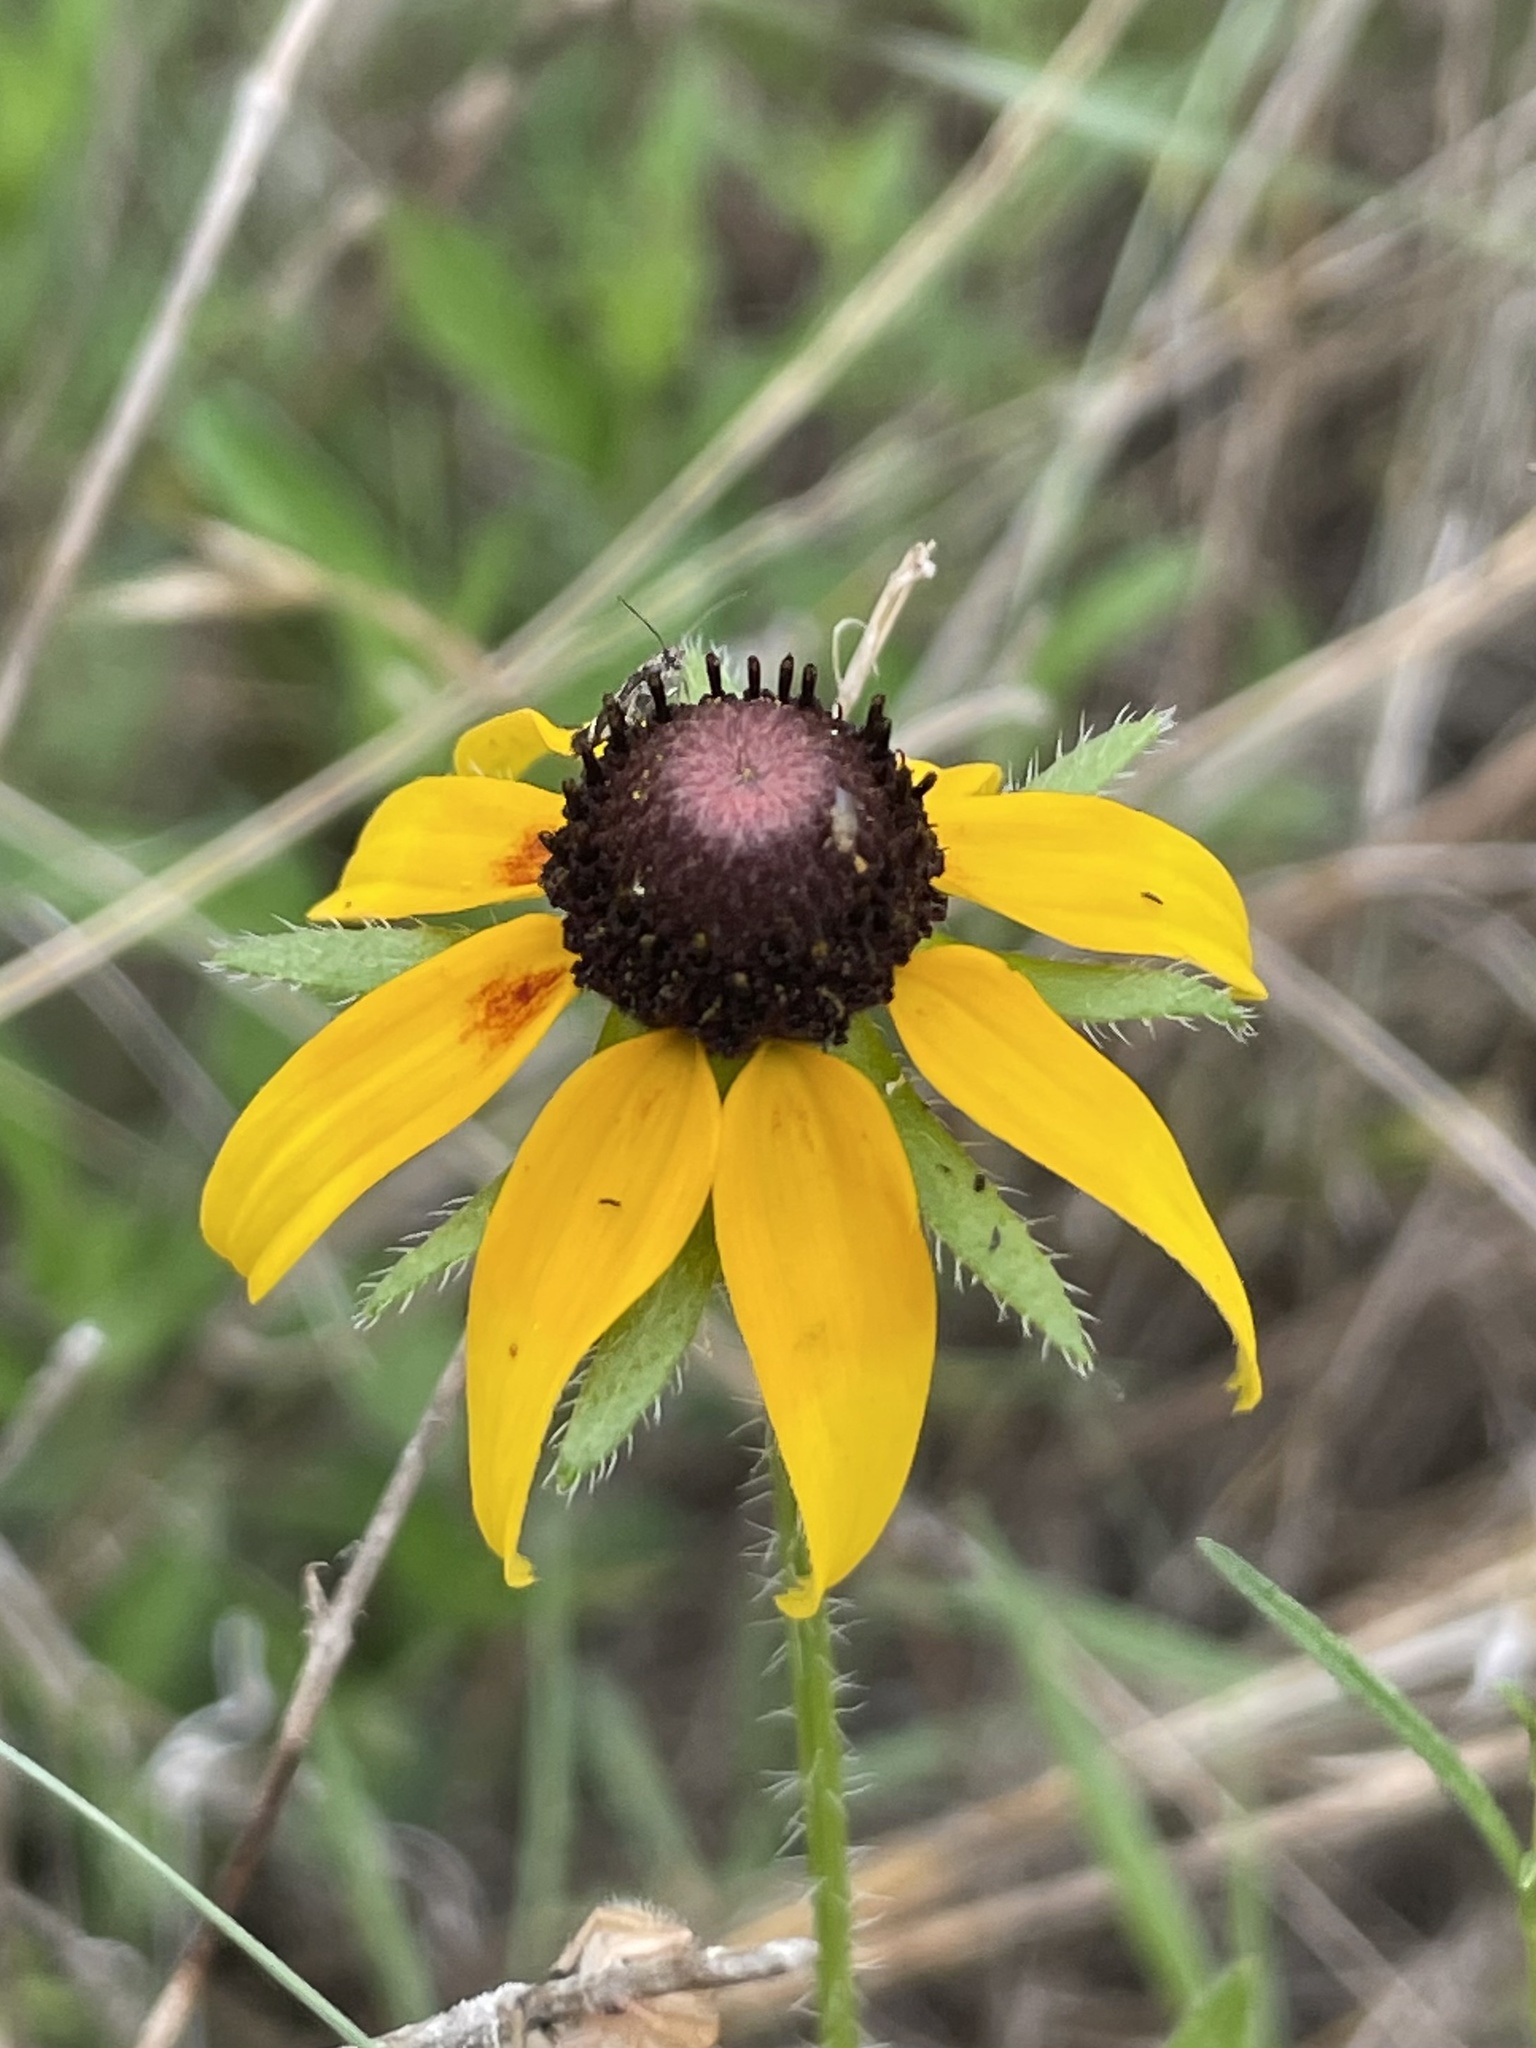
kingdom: Plantae
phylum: Tracheophyta
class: Magnoliopsida
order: Asterales
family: Asteraceae
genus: Rudbeckia
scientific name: Rudbeckia hirta
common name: Black-eyed-susan
